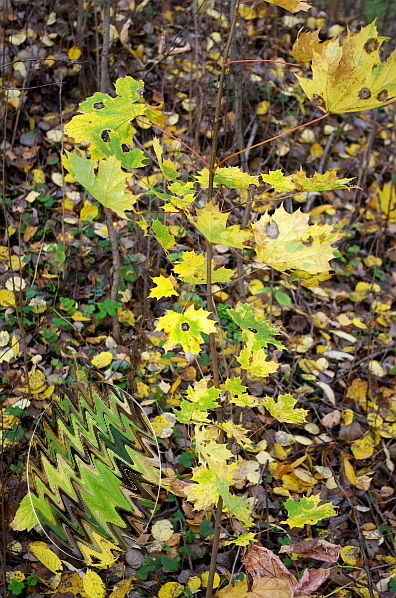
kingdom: Plantae
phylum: Tracheophyta
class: Magnoliopsida
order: Sapindales
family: Sapindaceae
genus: Acer
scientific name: Acer platanoides
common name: Norway maple
